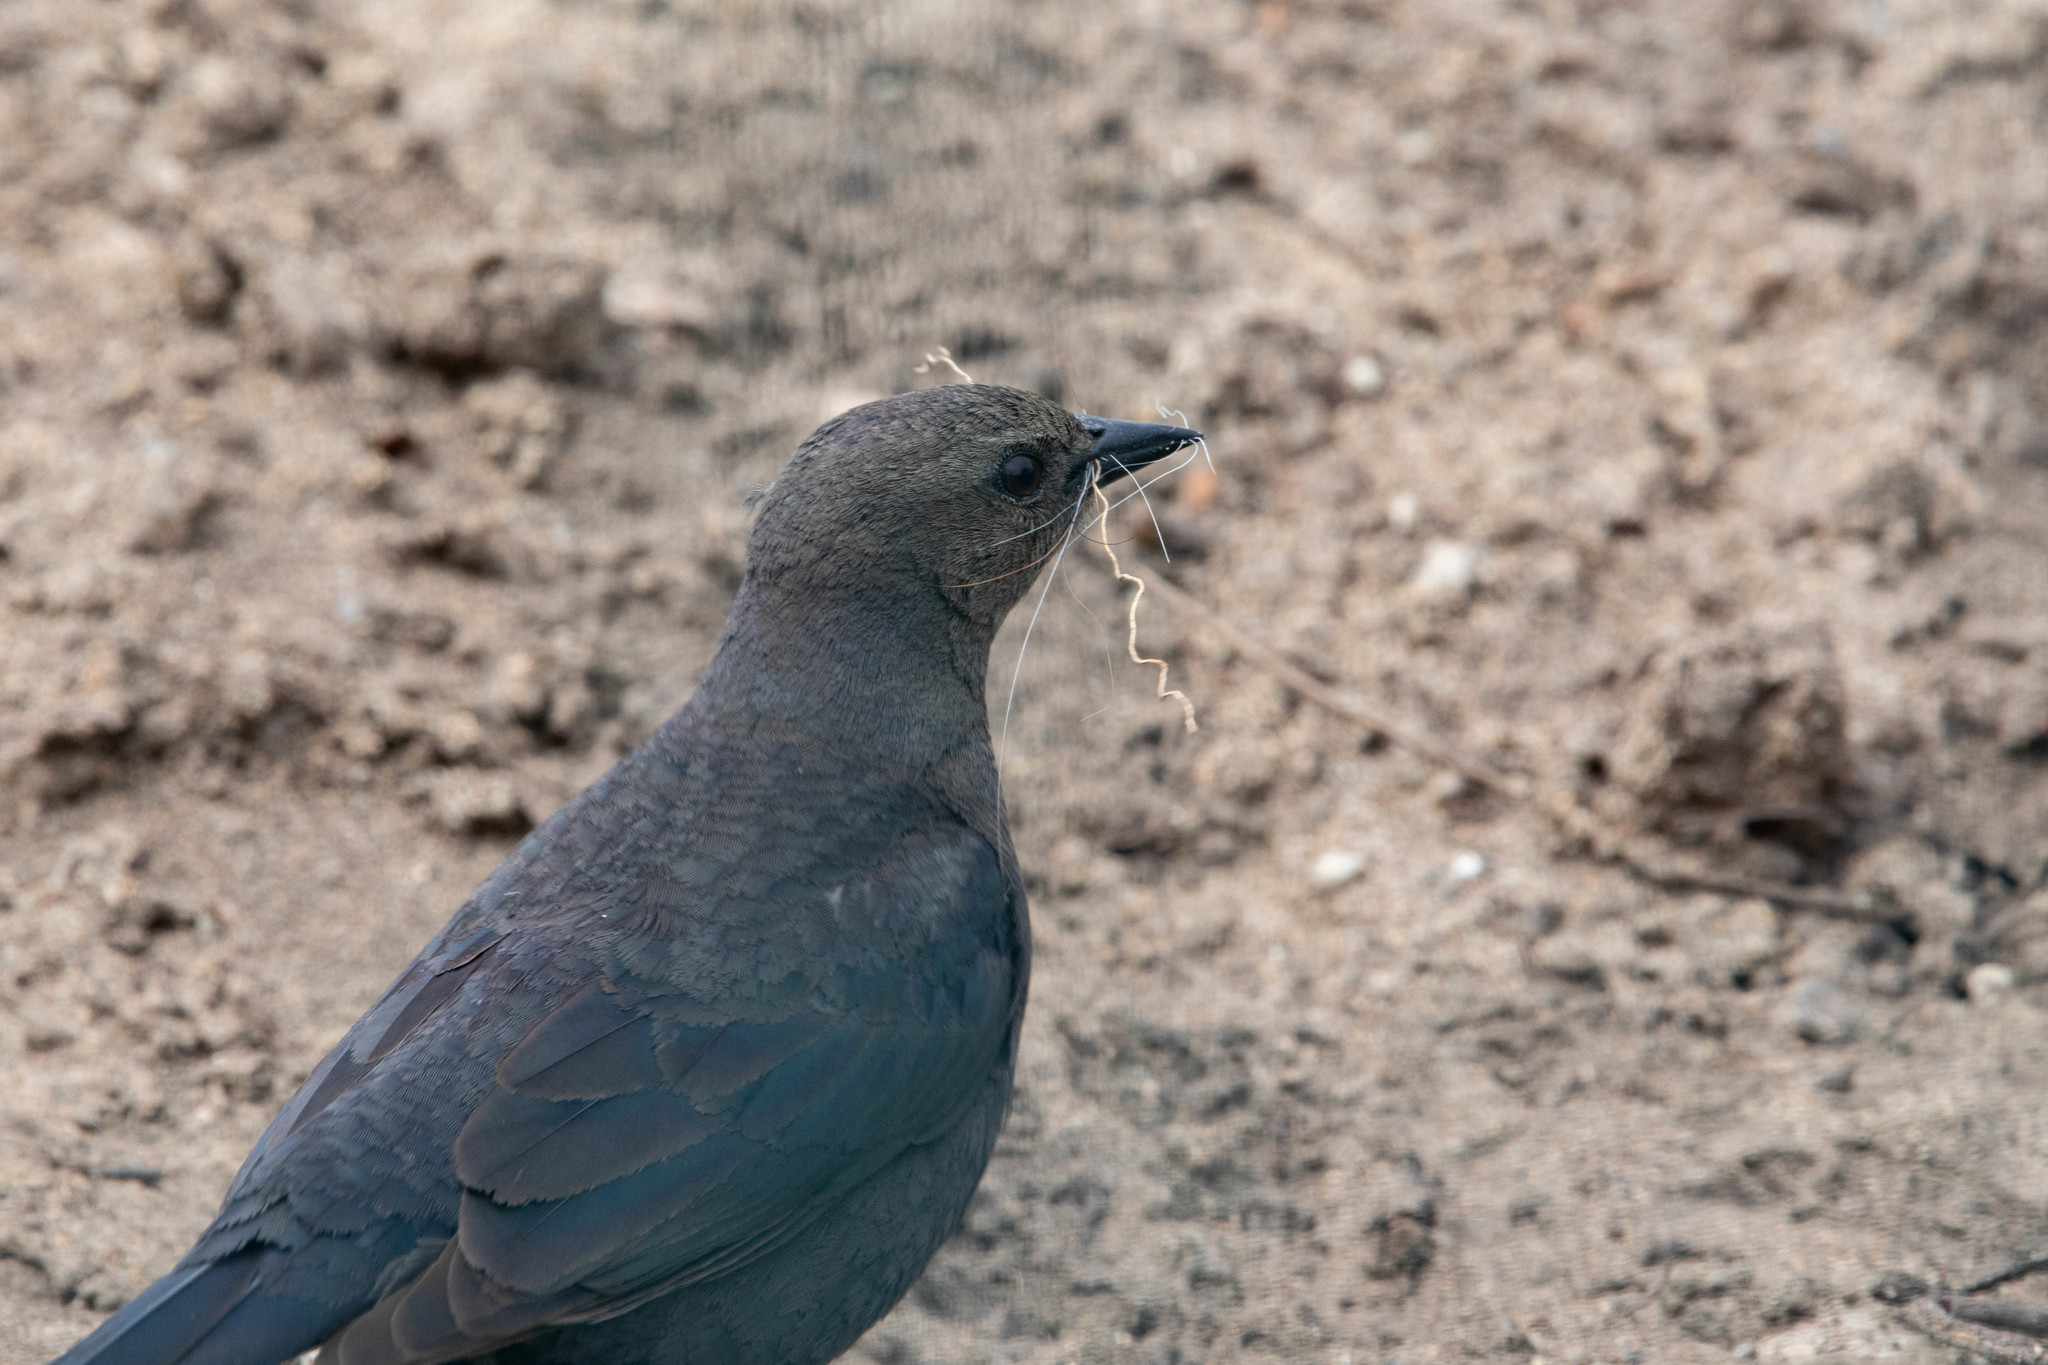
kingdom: Animalia
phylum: Chordata
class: Aves
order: Passeriformes
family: Icteridae
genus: Euphagus
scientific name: Euphagus cyanocephalus
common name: Brewer's blackbird
